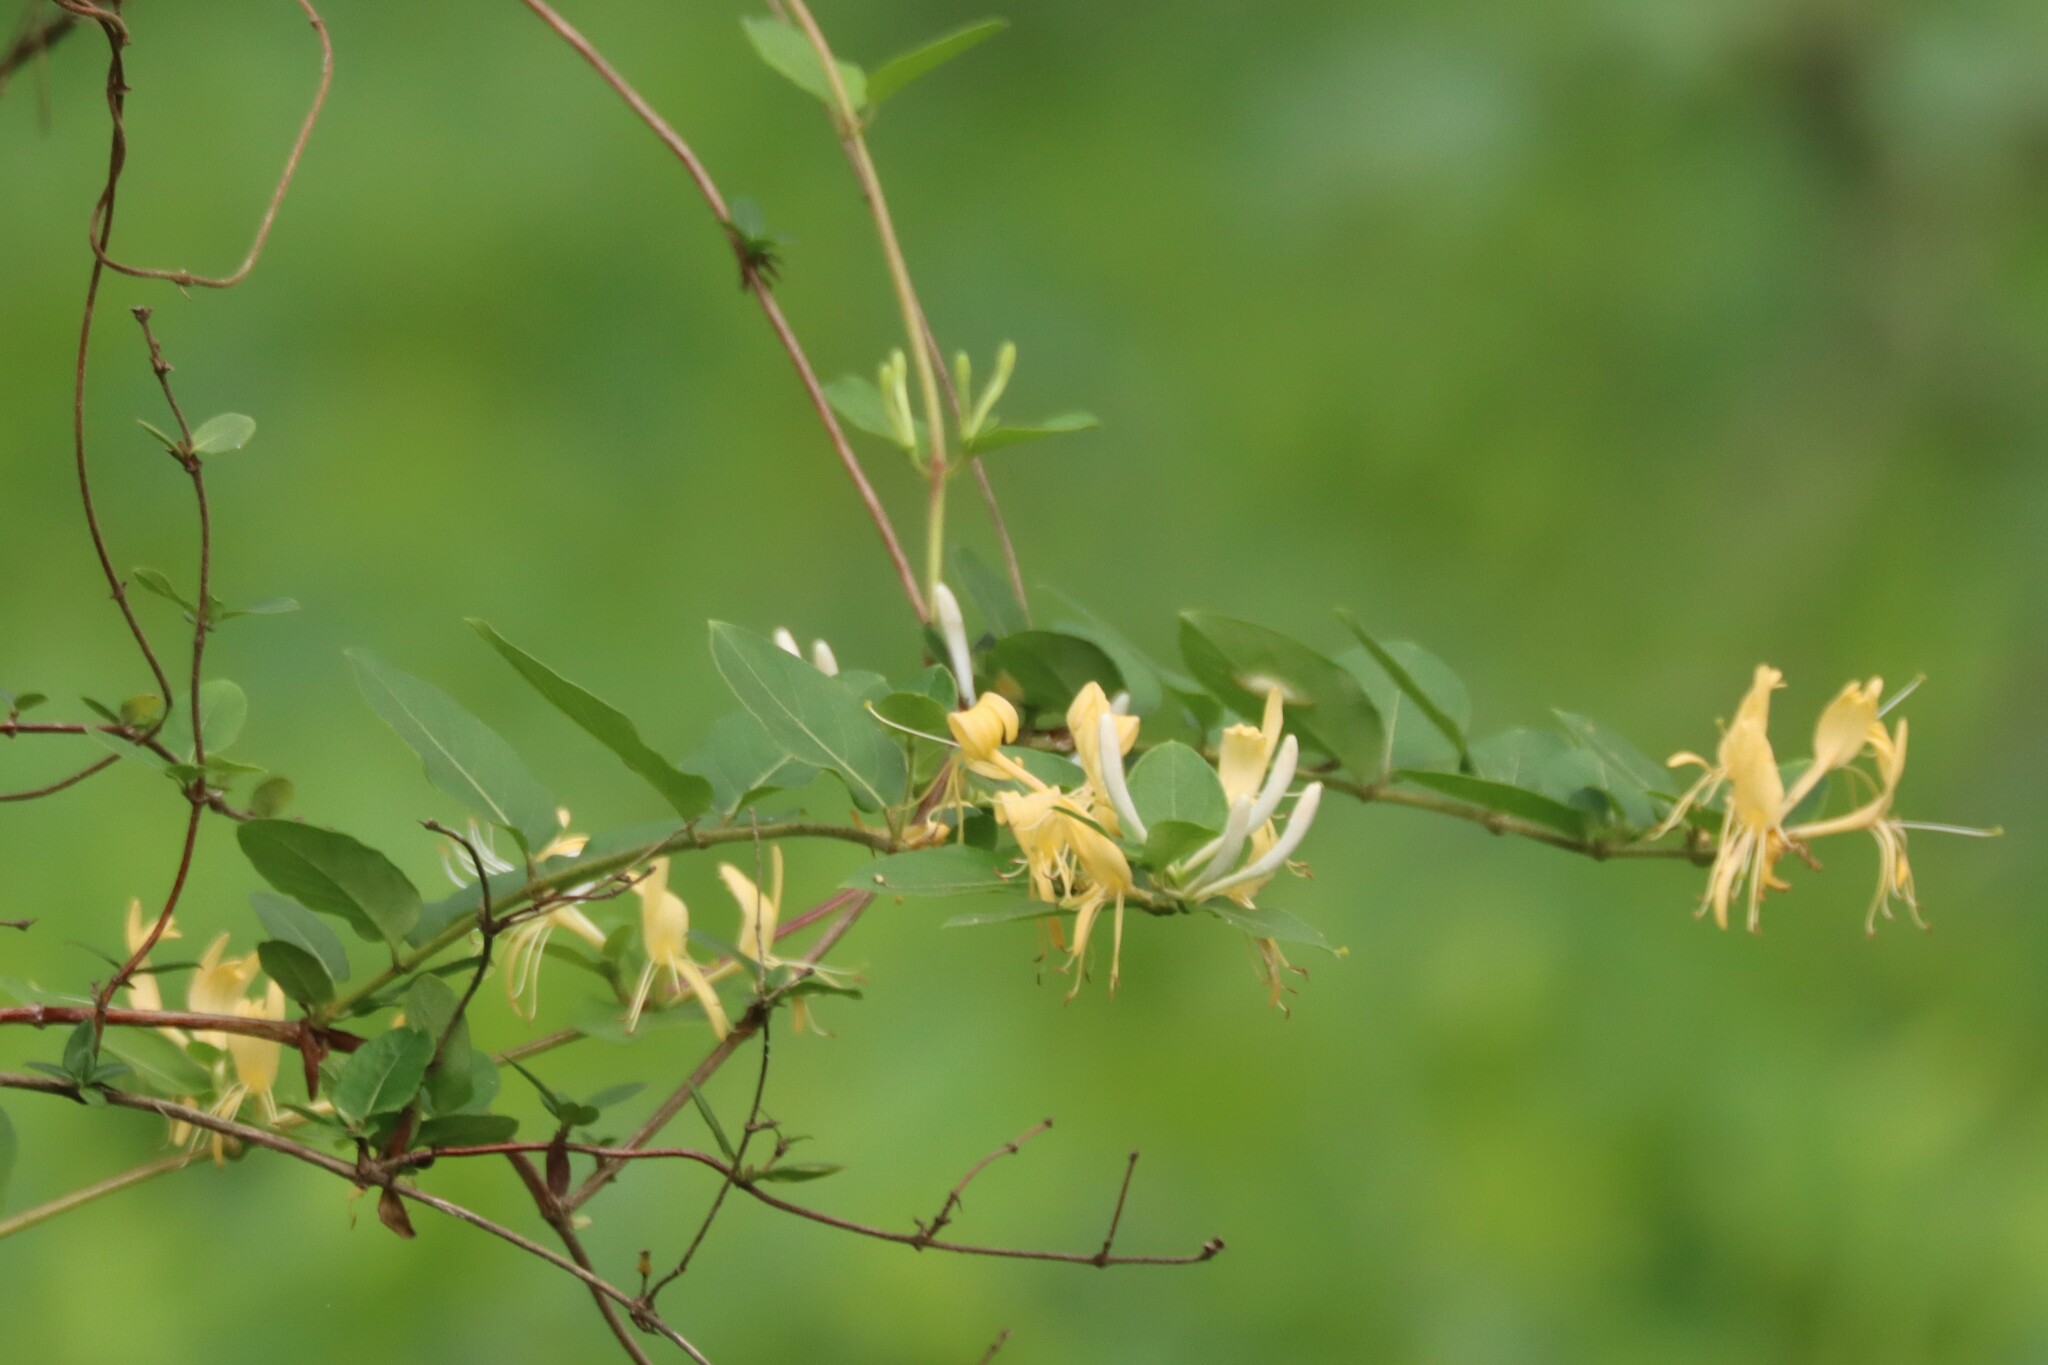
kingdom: Plantae
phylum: Tracheophyta
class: Magnoliopsida
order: Dipsacales
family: Caprifoliaceae
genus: Lonicera
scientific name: Lonicera japonica
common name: Japanese honeysuckle
